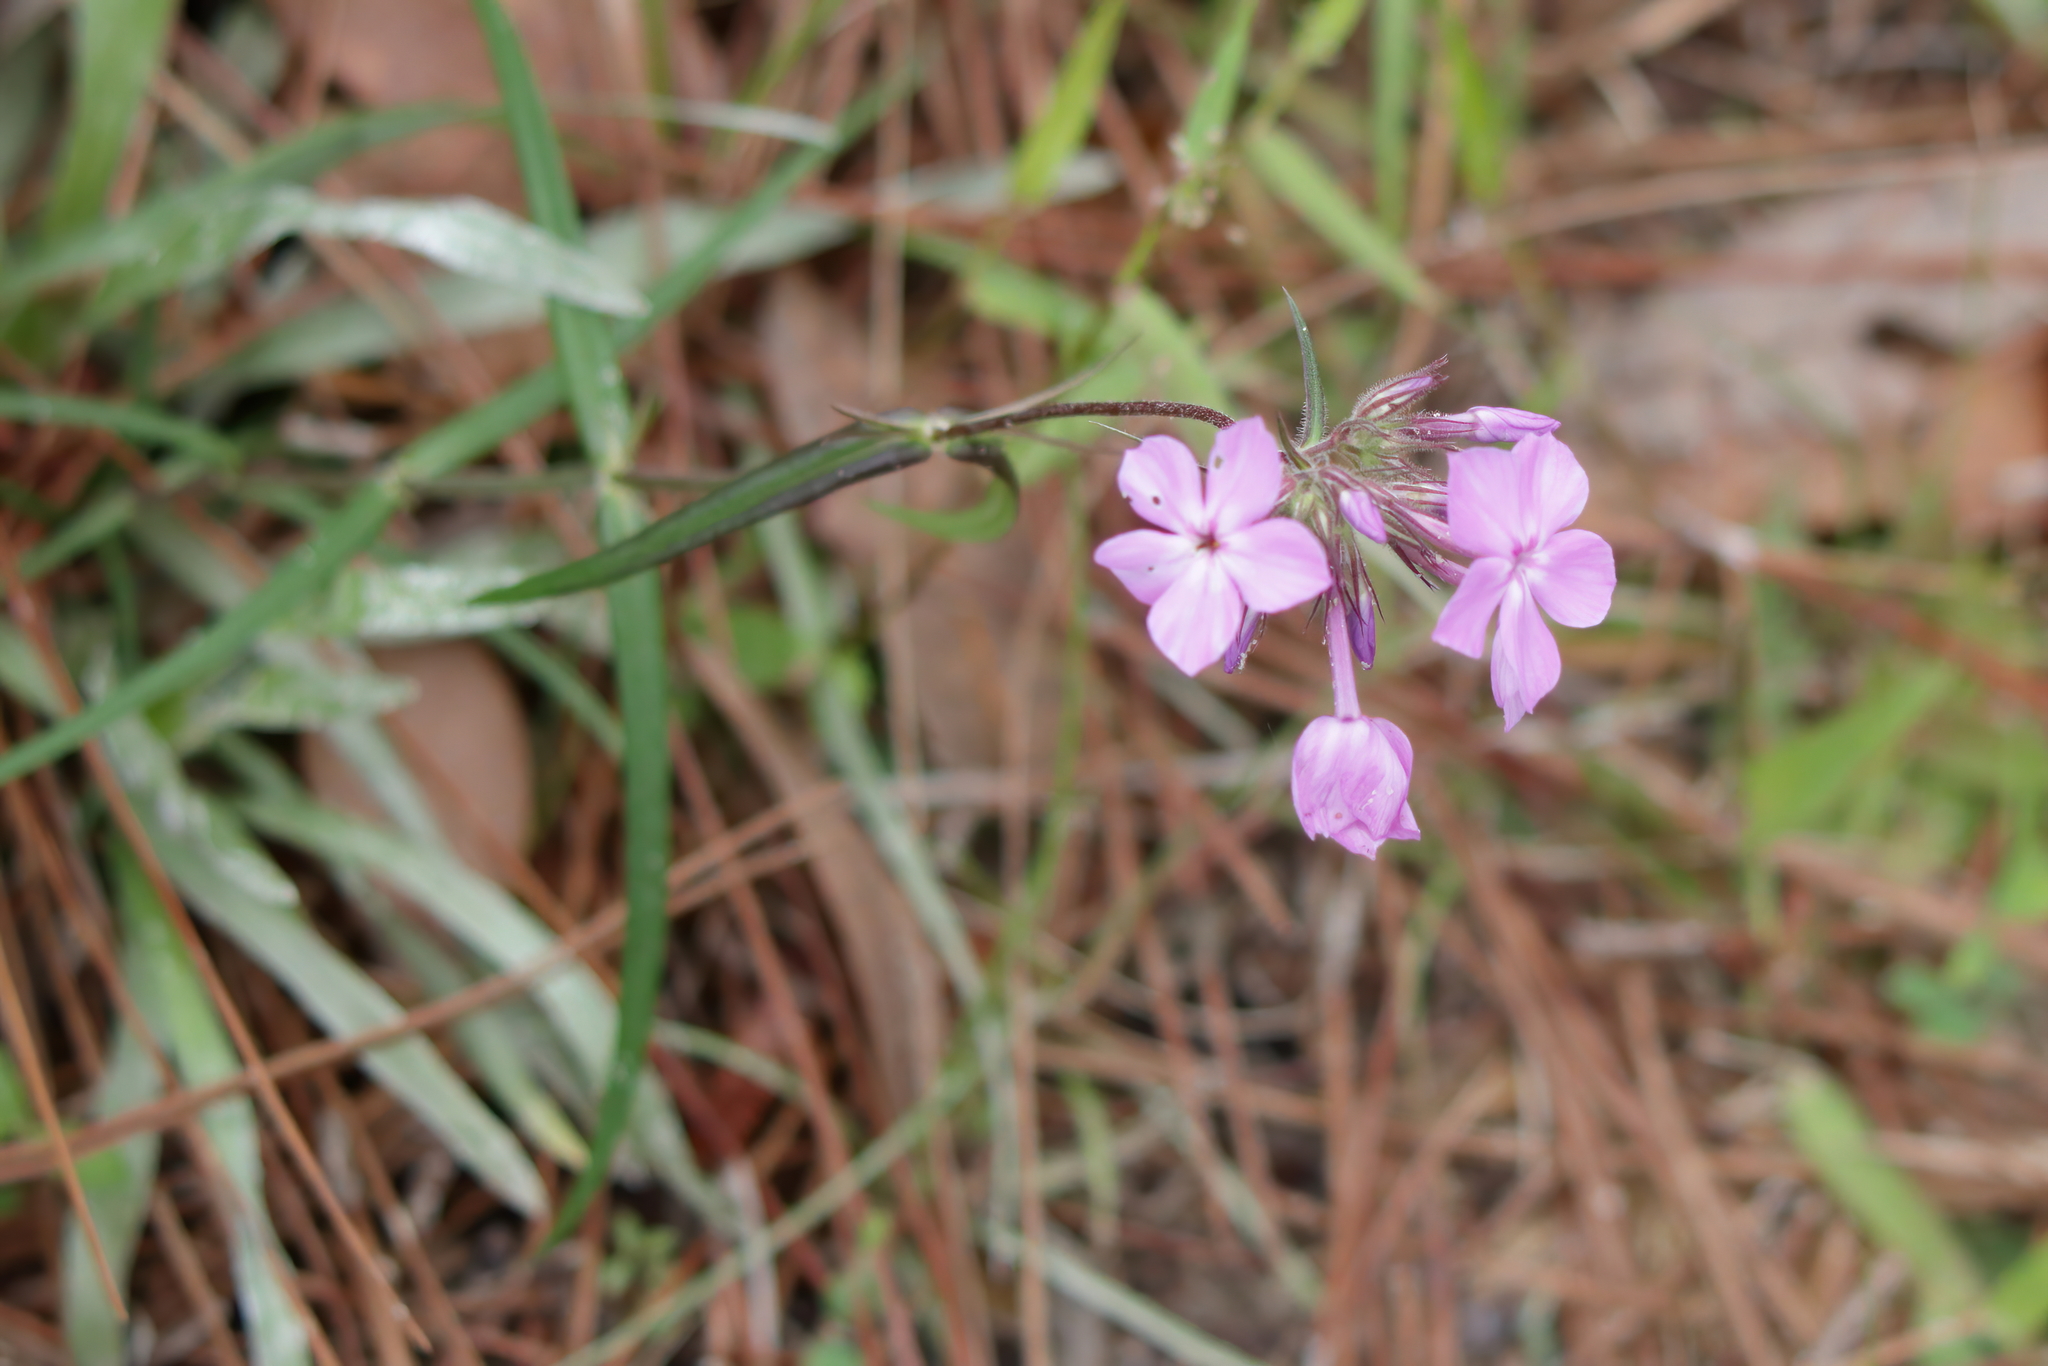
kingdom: Plantae
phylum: Tracheophyta
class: Magnoliopsida
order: Ericales
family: Polemoniaceae
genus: Phlox
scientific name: Phlox pilosa
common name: Prairie phlox
